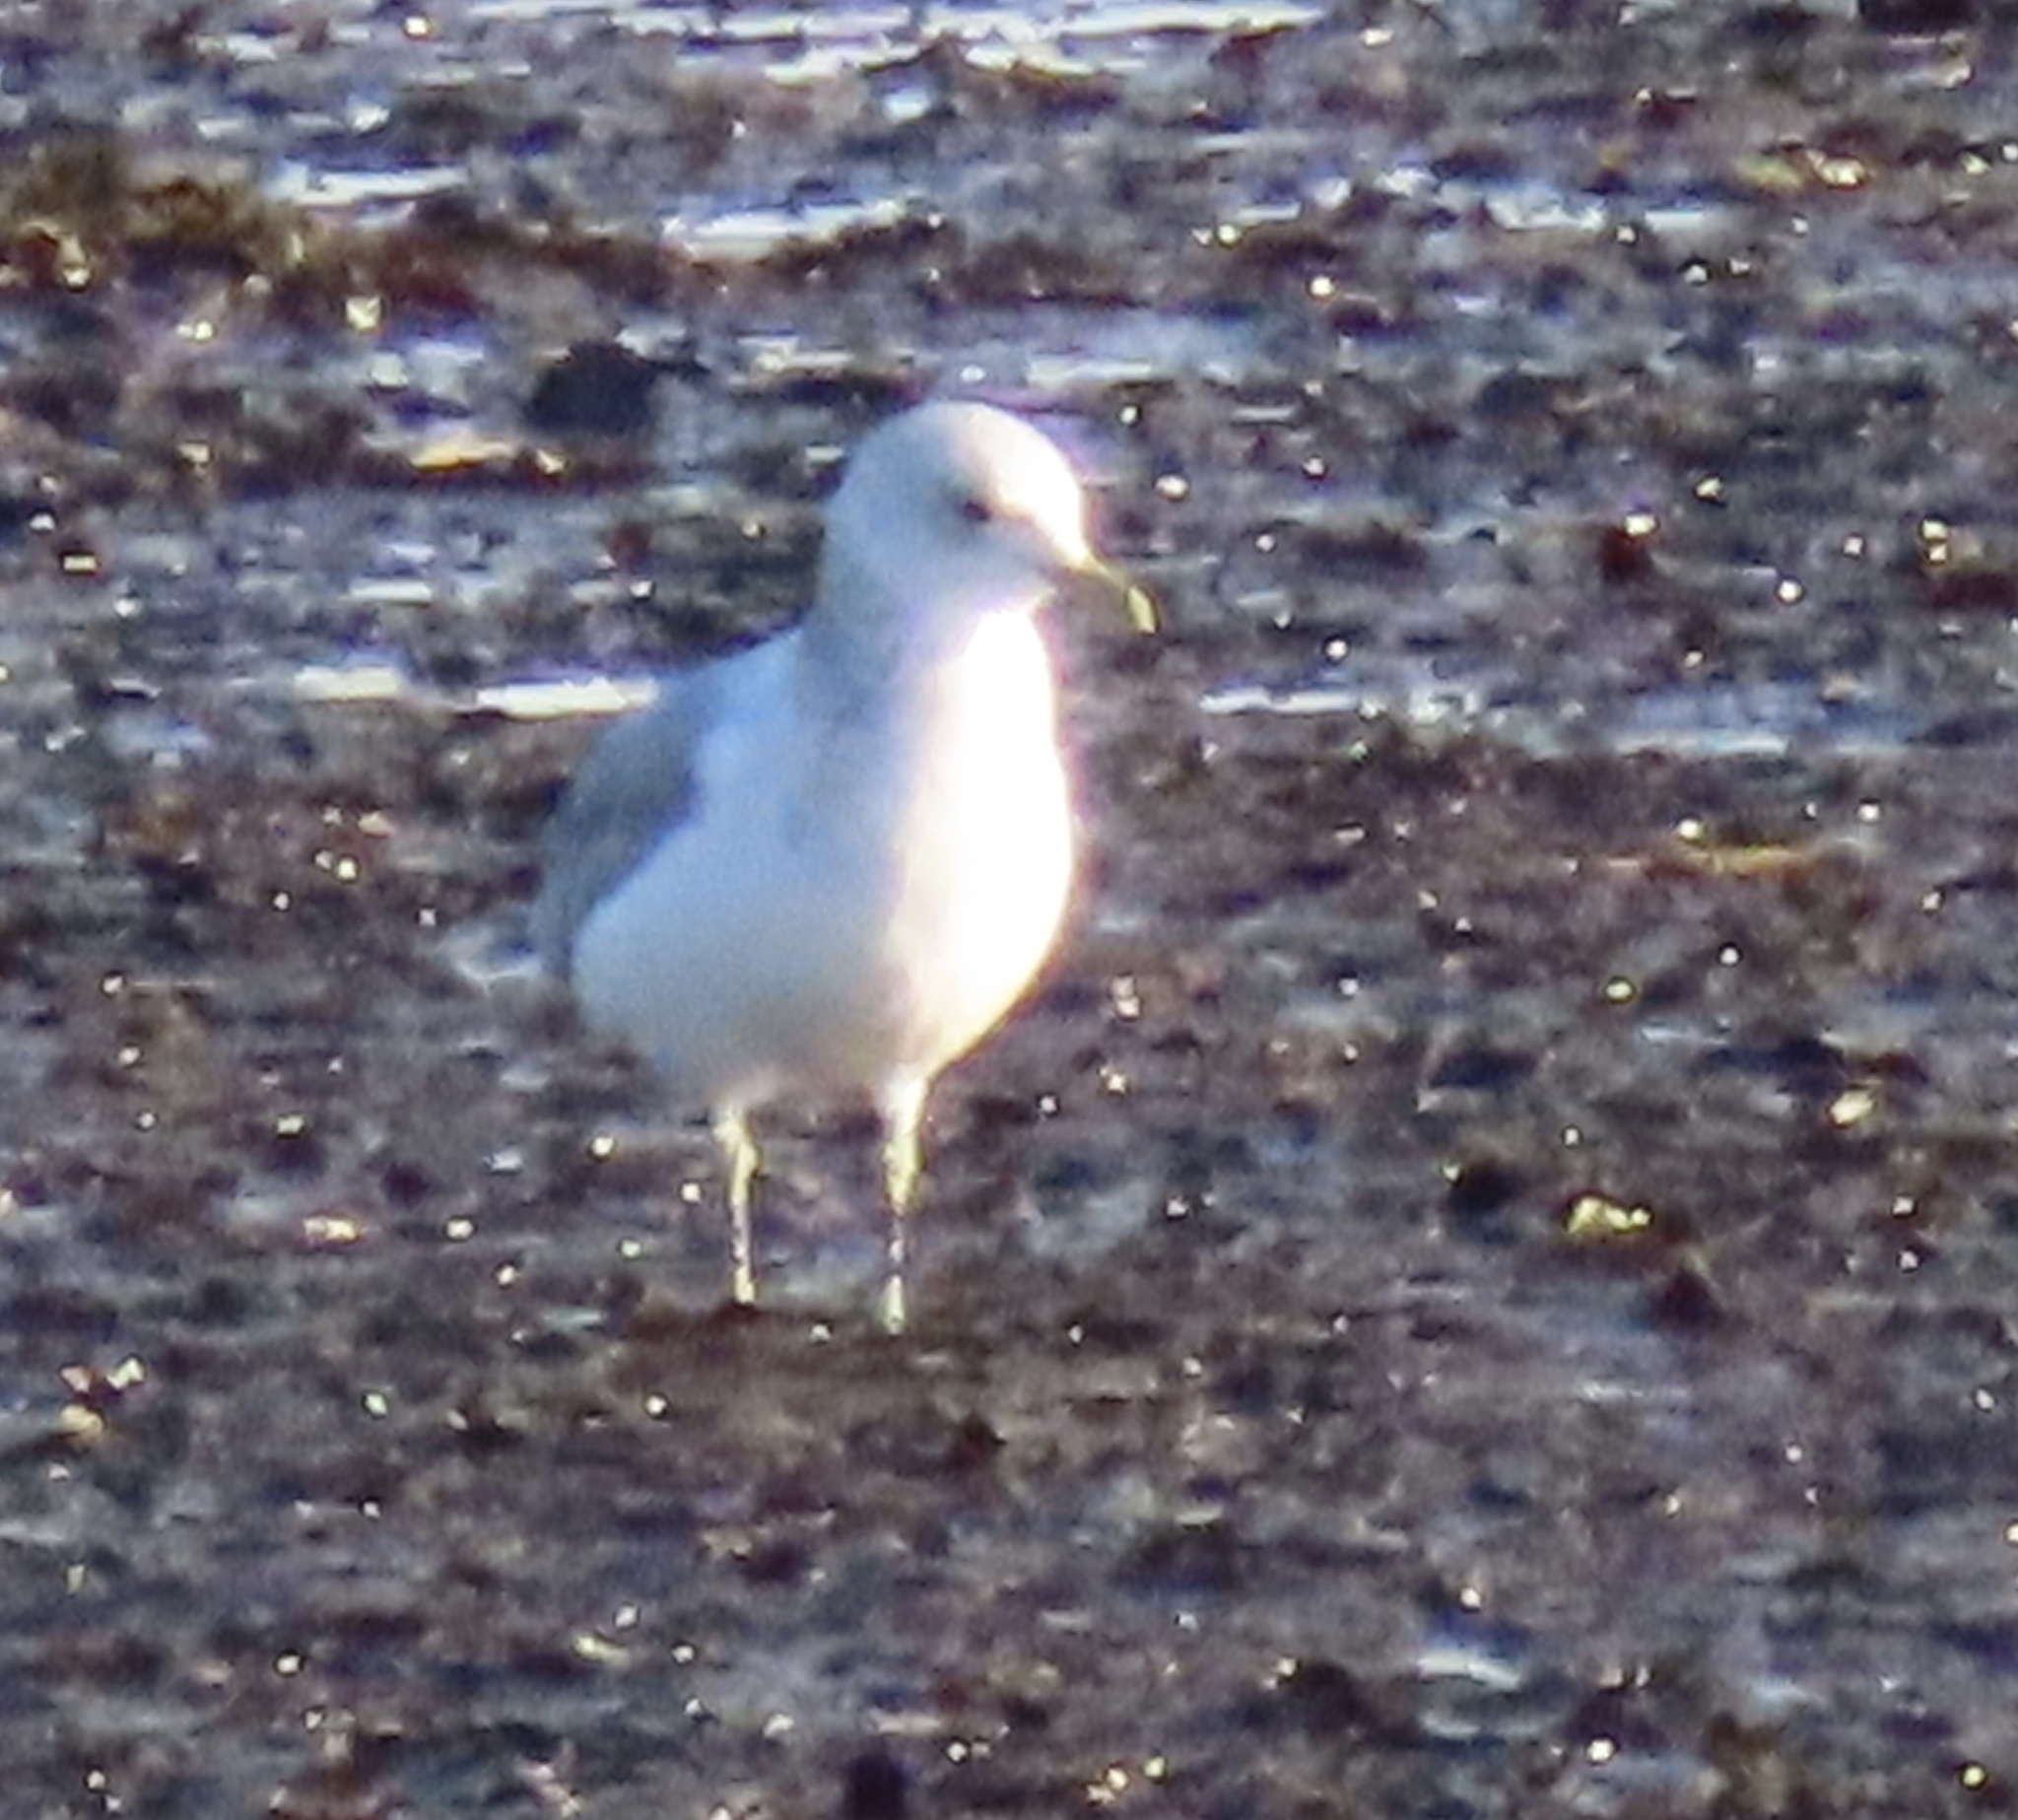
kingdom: Animalia
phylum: Chordata
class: Aves
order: Charadriiformes
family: Laridae
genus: Larus
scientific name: Larus canus
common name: Mew gull
